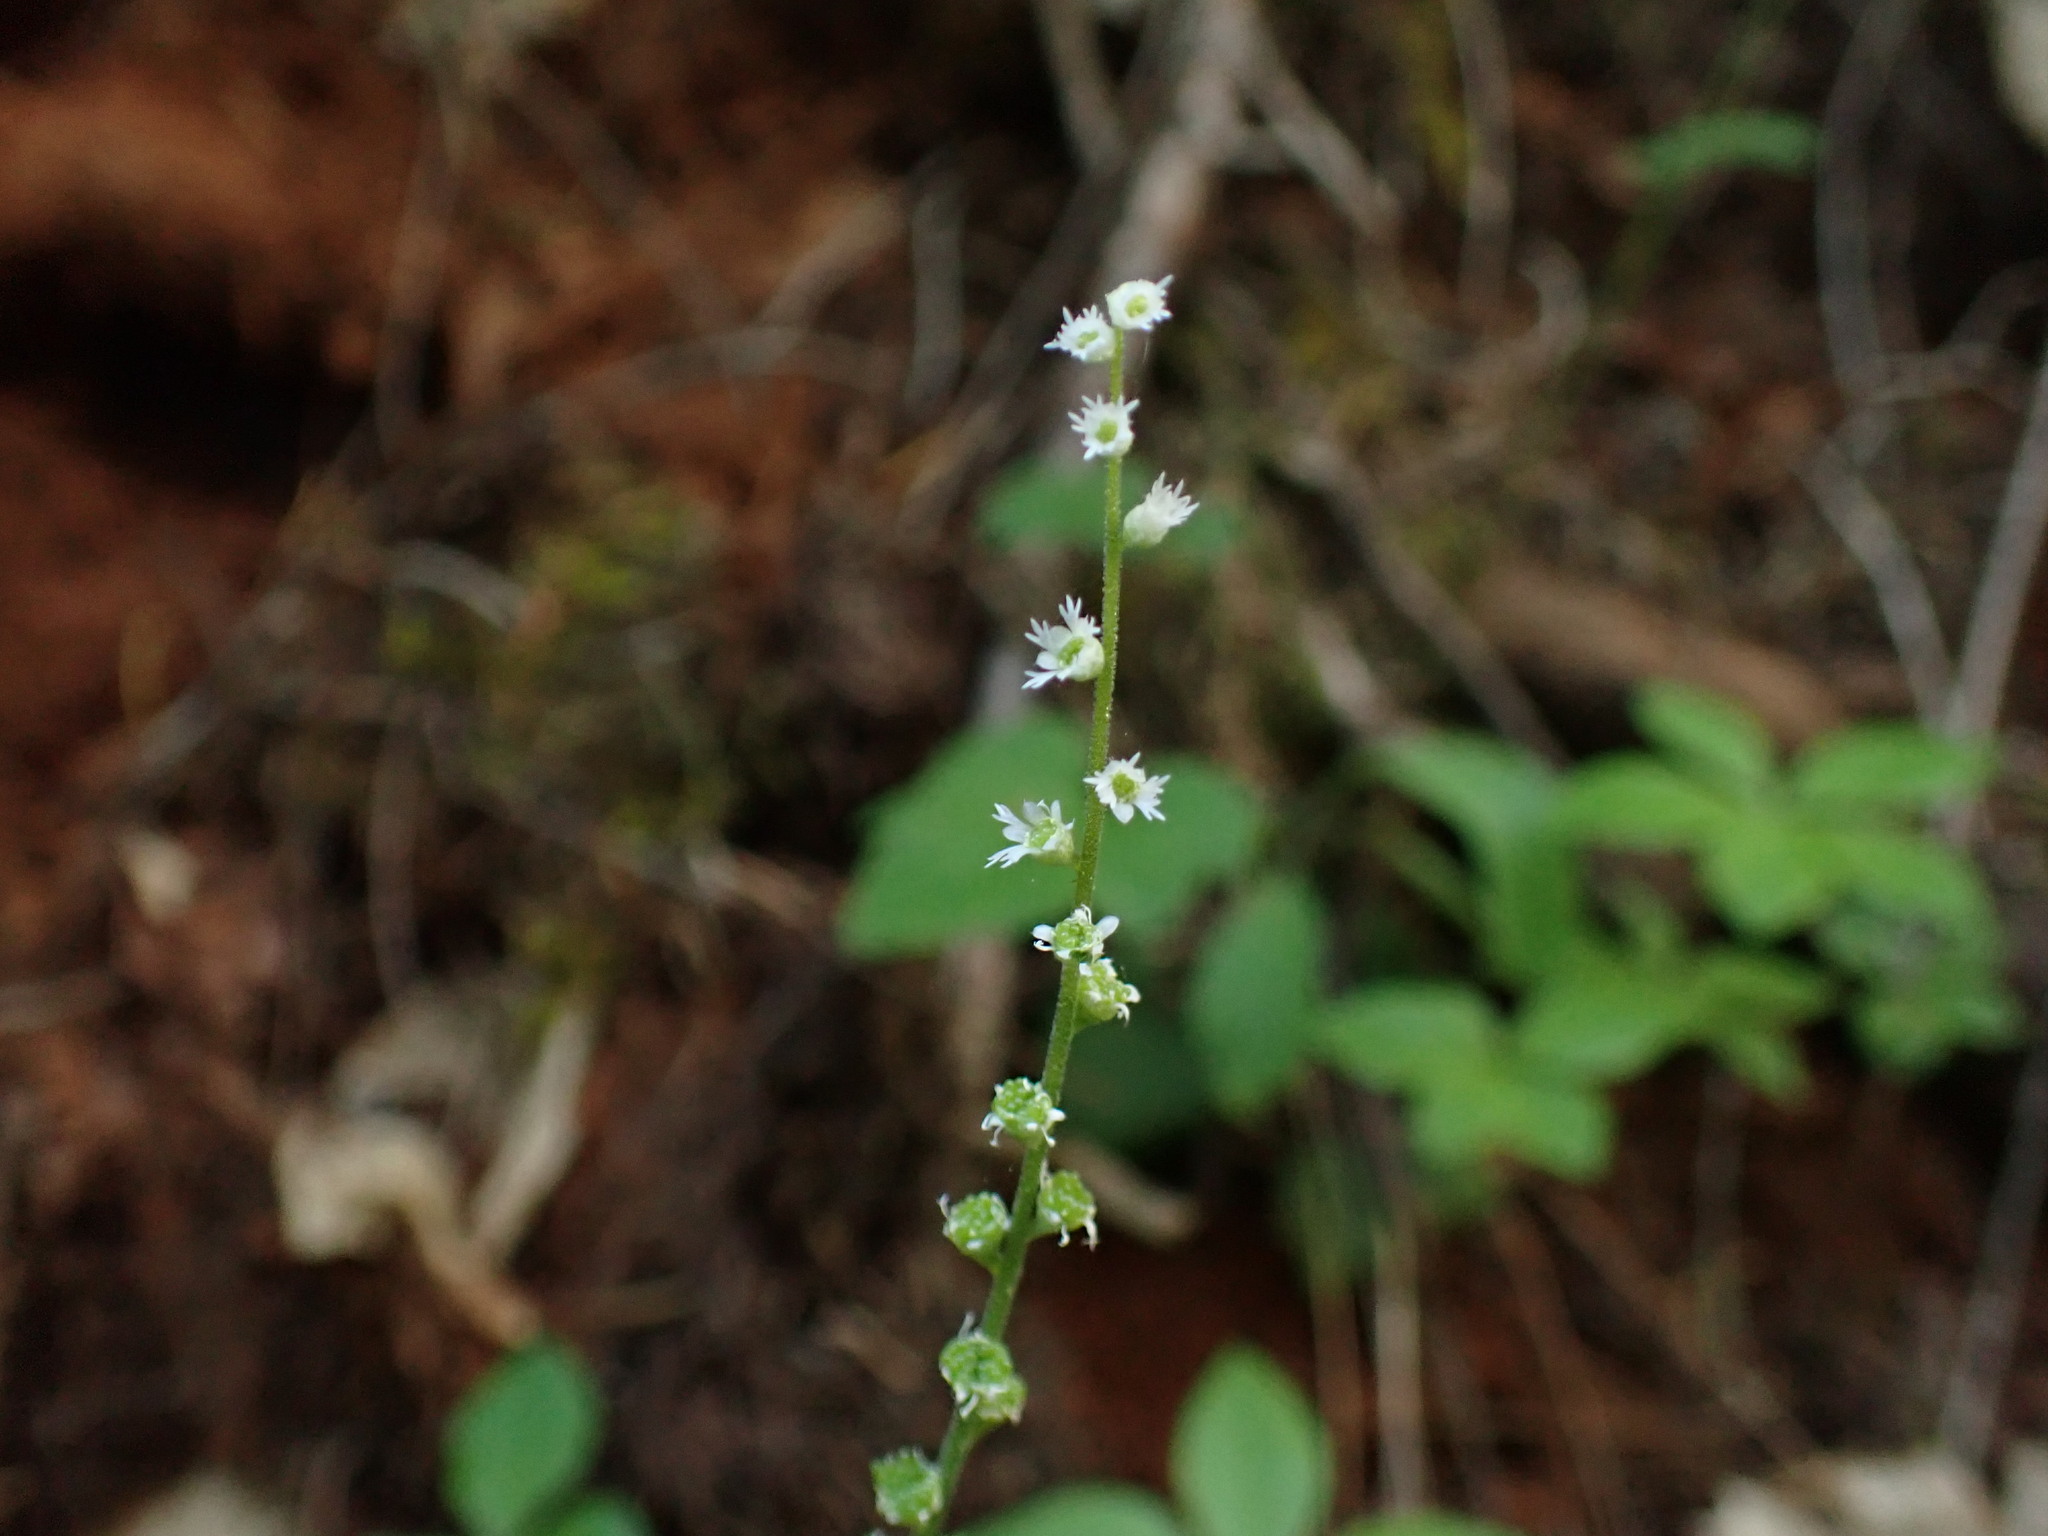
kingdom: Plantae
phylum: Tracheophyta
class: Magnoliopsida
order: Saxifragales
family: Saxifragaceae
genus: Ozomelis
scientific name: Ozomelis trifida
